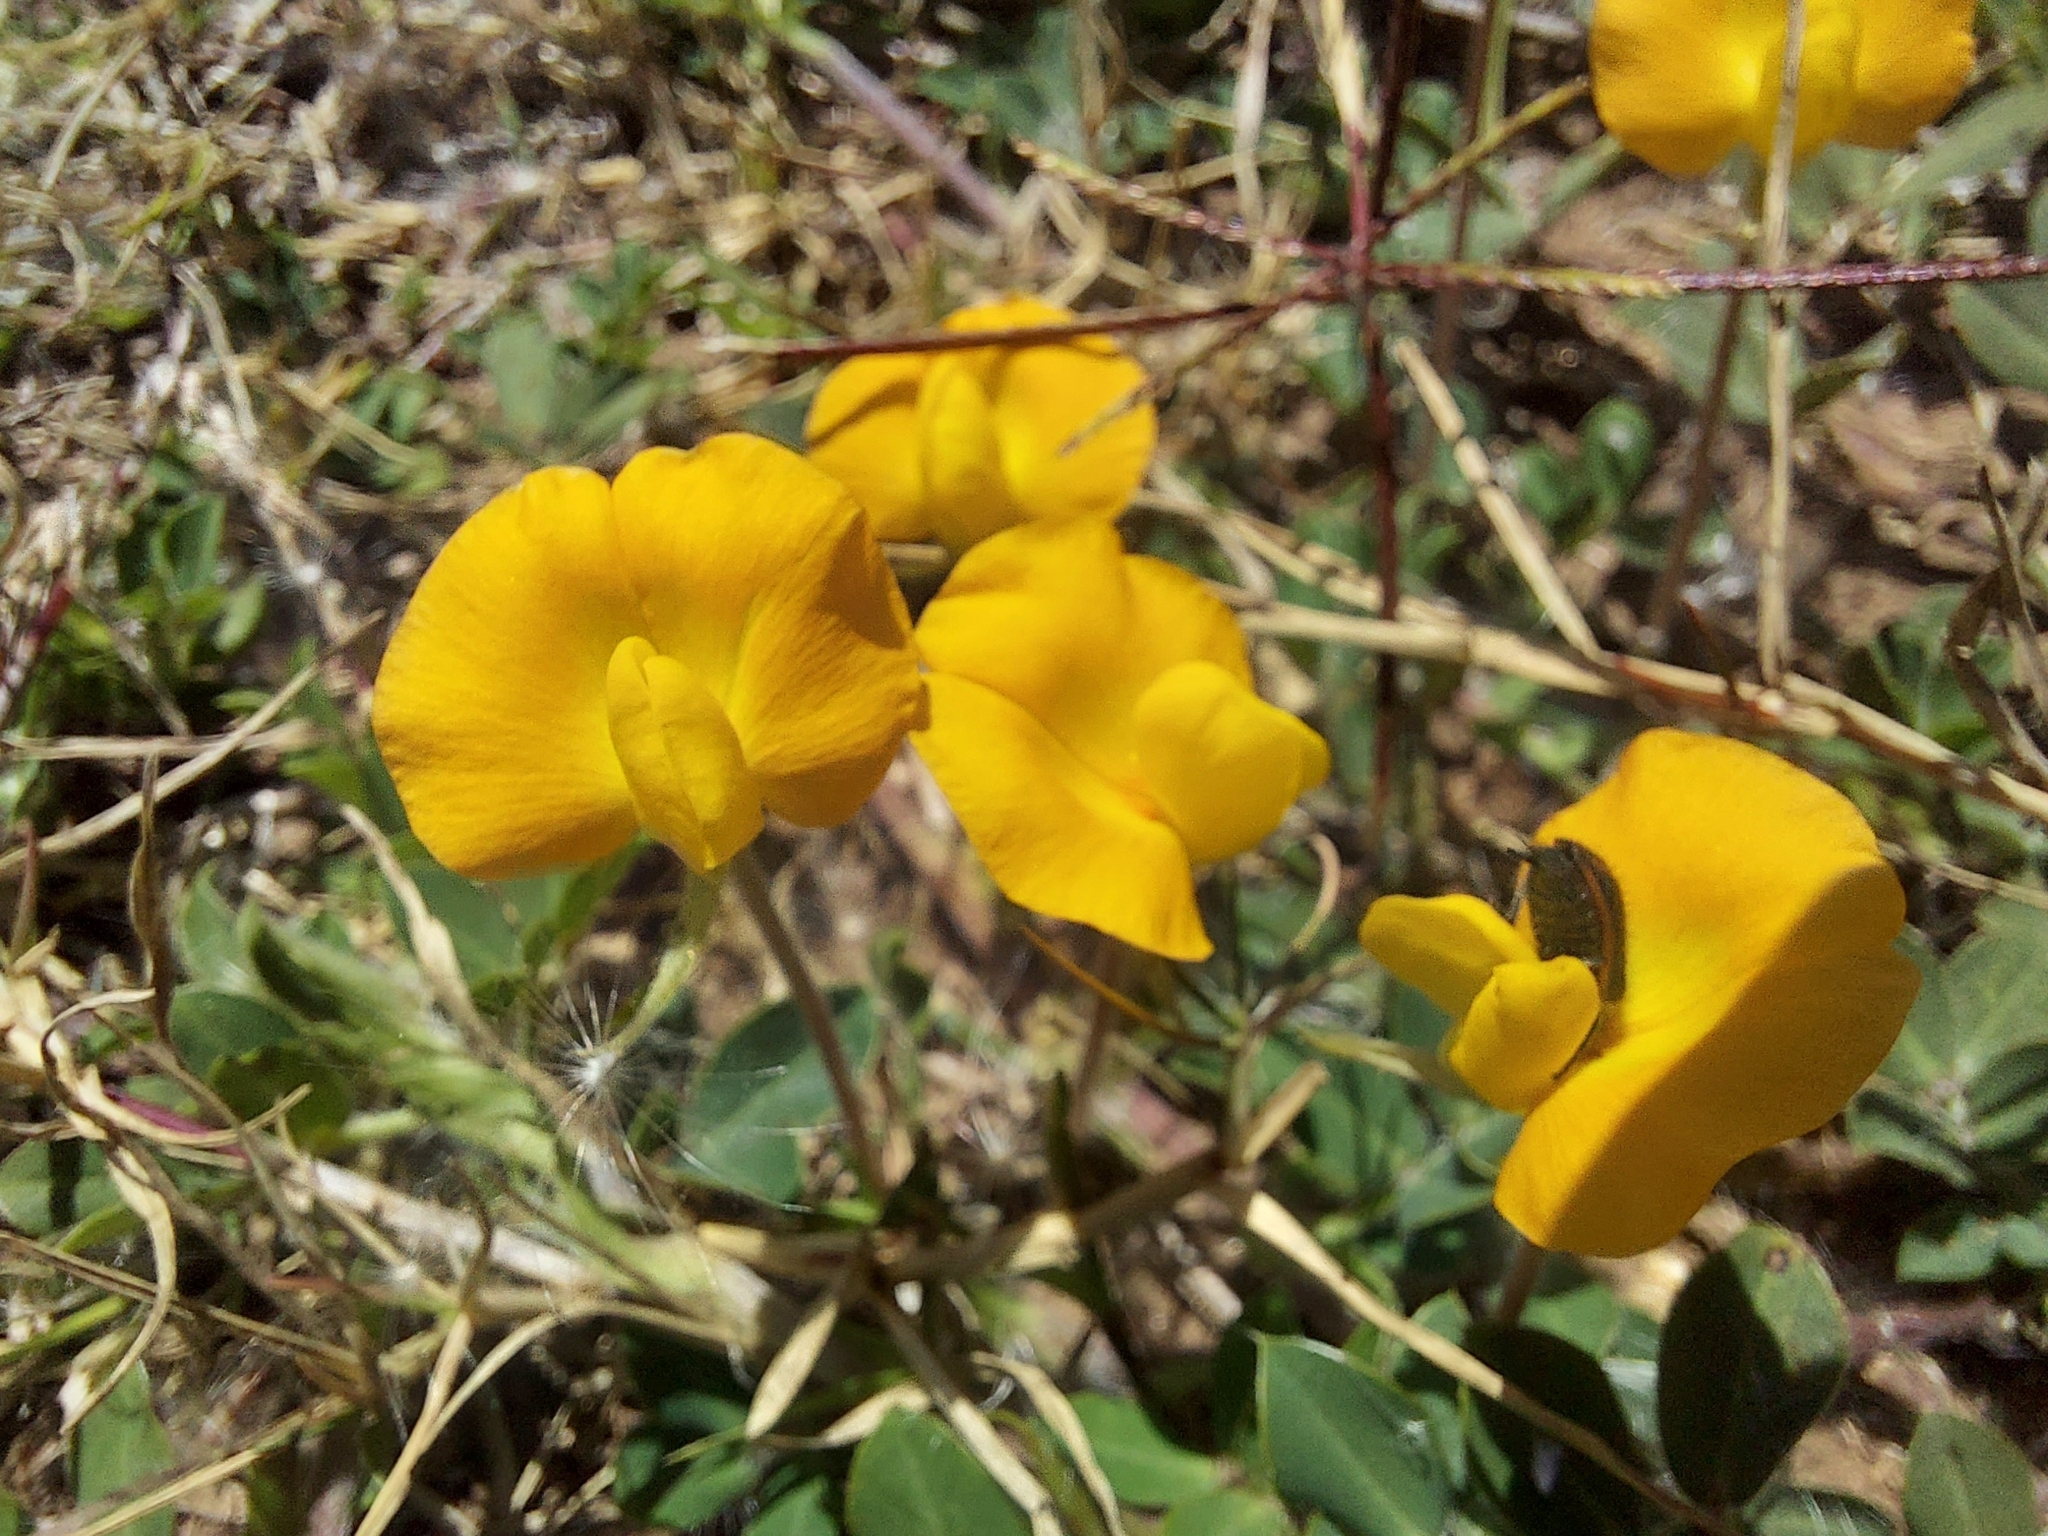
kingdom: Plantae
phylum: Tracheophyta
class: Magnoliopsida
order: Fabales
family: Fabaceae
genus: Arachis
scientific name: Arachis villosa
